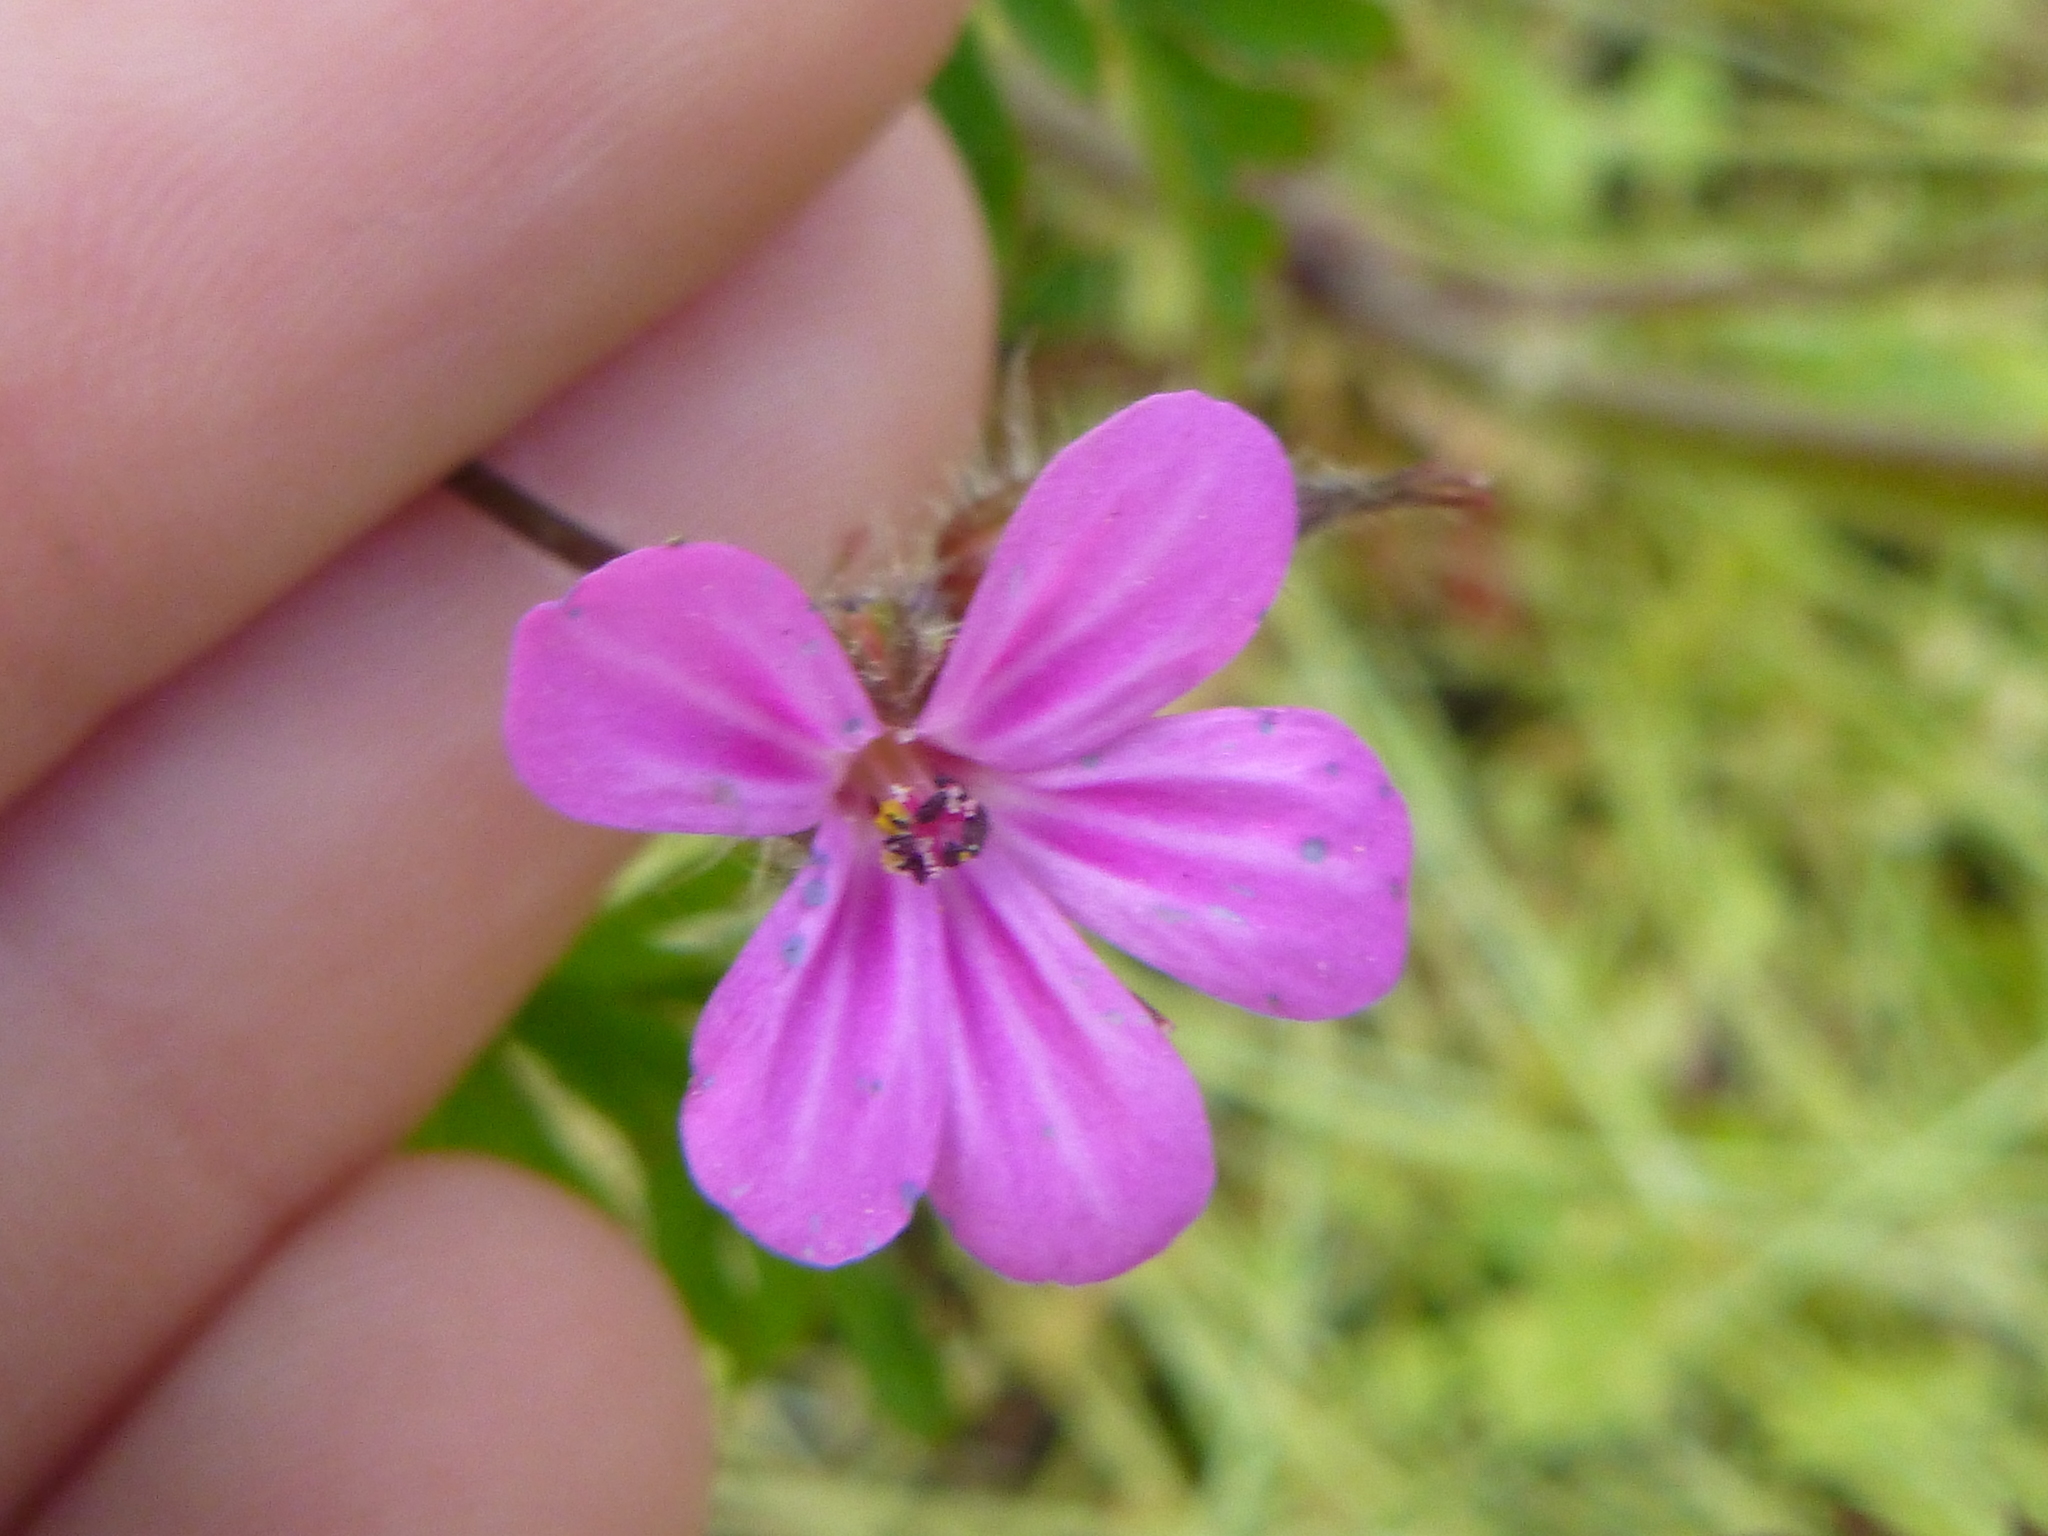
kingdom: Plantae
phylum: Tracheophyta
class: Magnoliopsida
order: Geraniales
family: Geraniaceae
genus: Geranium
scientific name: Geranium robertianum
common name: Herb-robert
